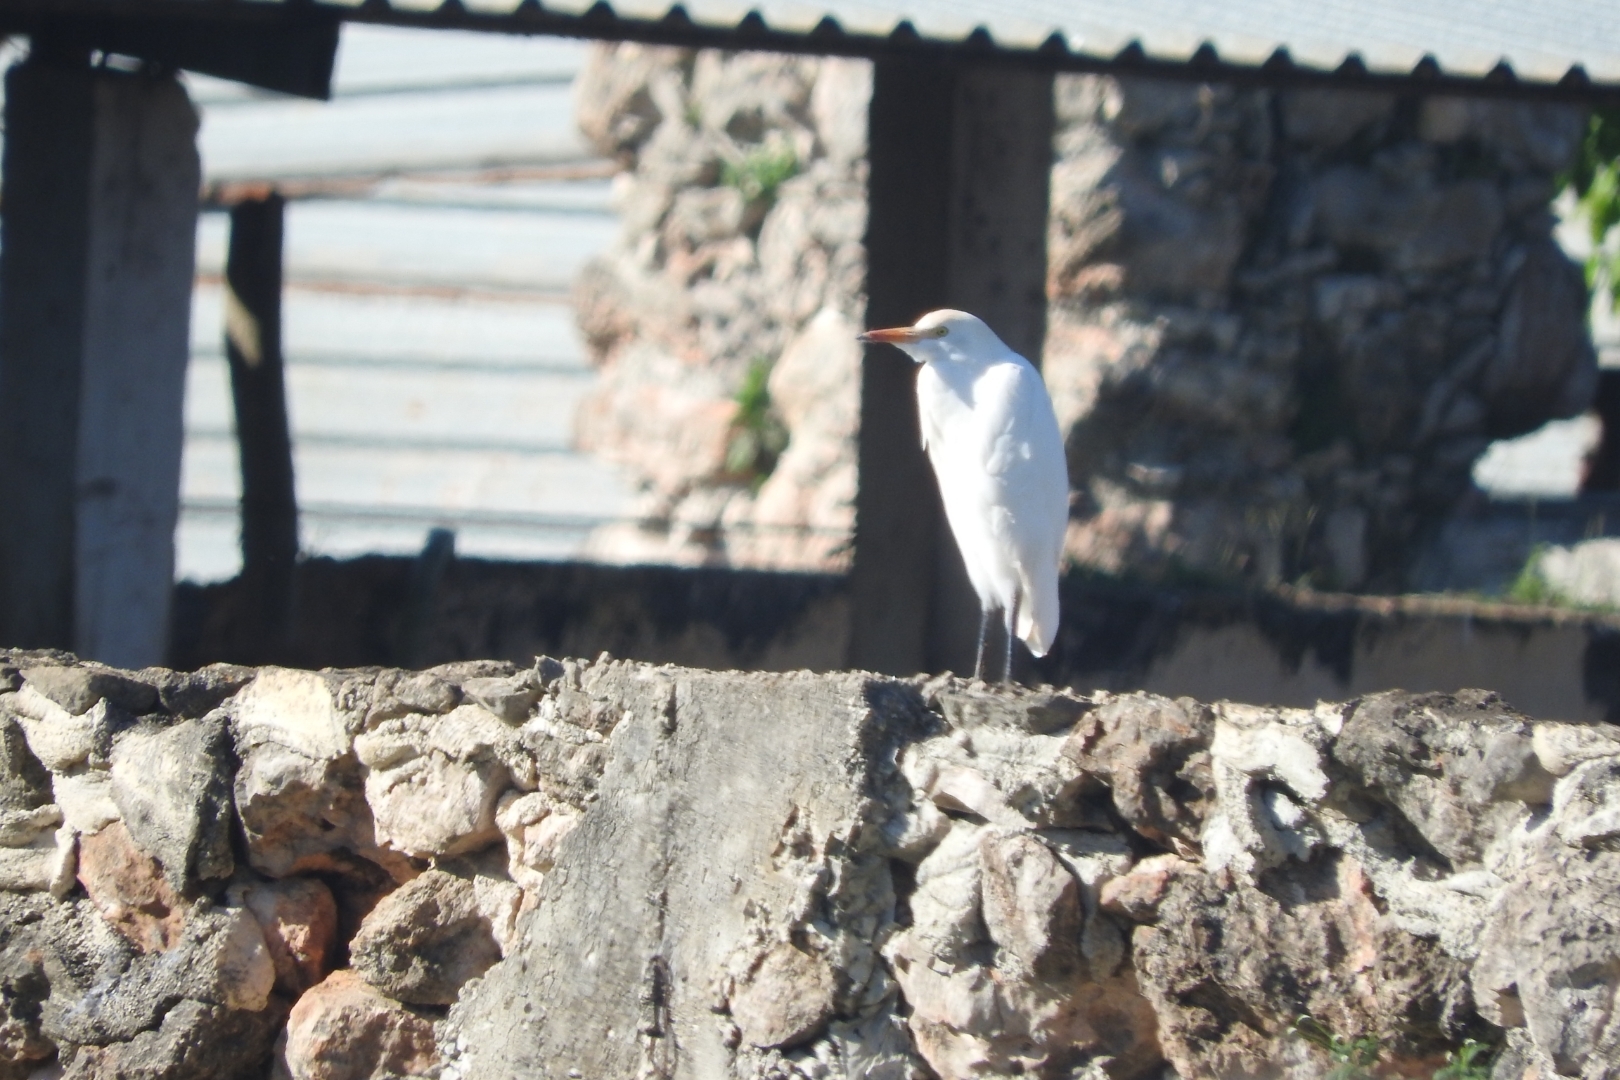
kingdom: Animalia
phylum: Chordata
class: Aves
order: Pelecaniformes
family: Ardeidae
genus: Bubulcus
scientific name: Bubulcus ibis
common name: Cattle egret
